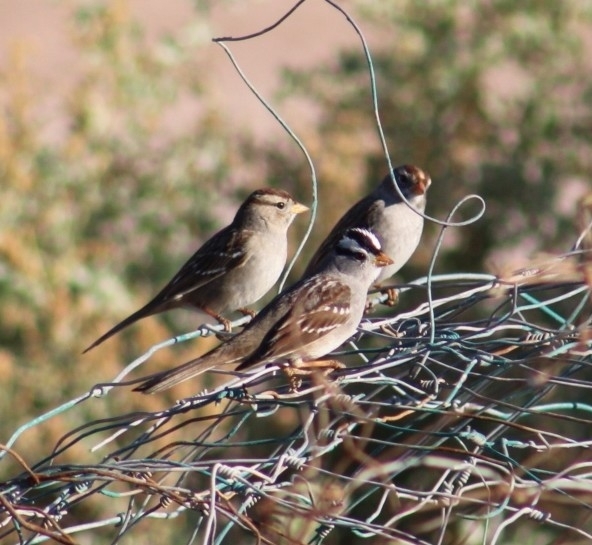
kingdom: Animalia
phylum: Chordata
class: Aves
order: Passeriformes
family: Passerellidae
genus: Zonotrichia
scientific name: Zonotrichia leucophrys
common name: White-crowned sparrow
